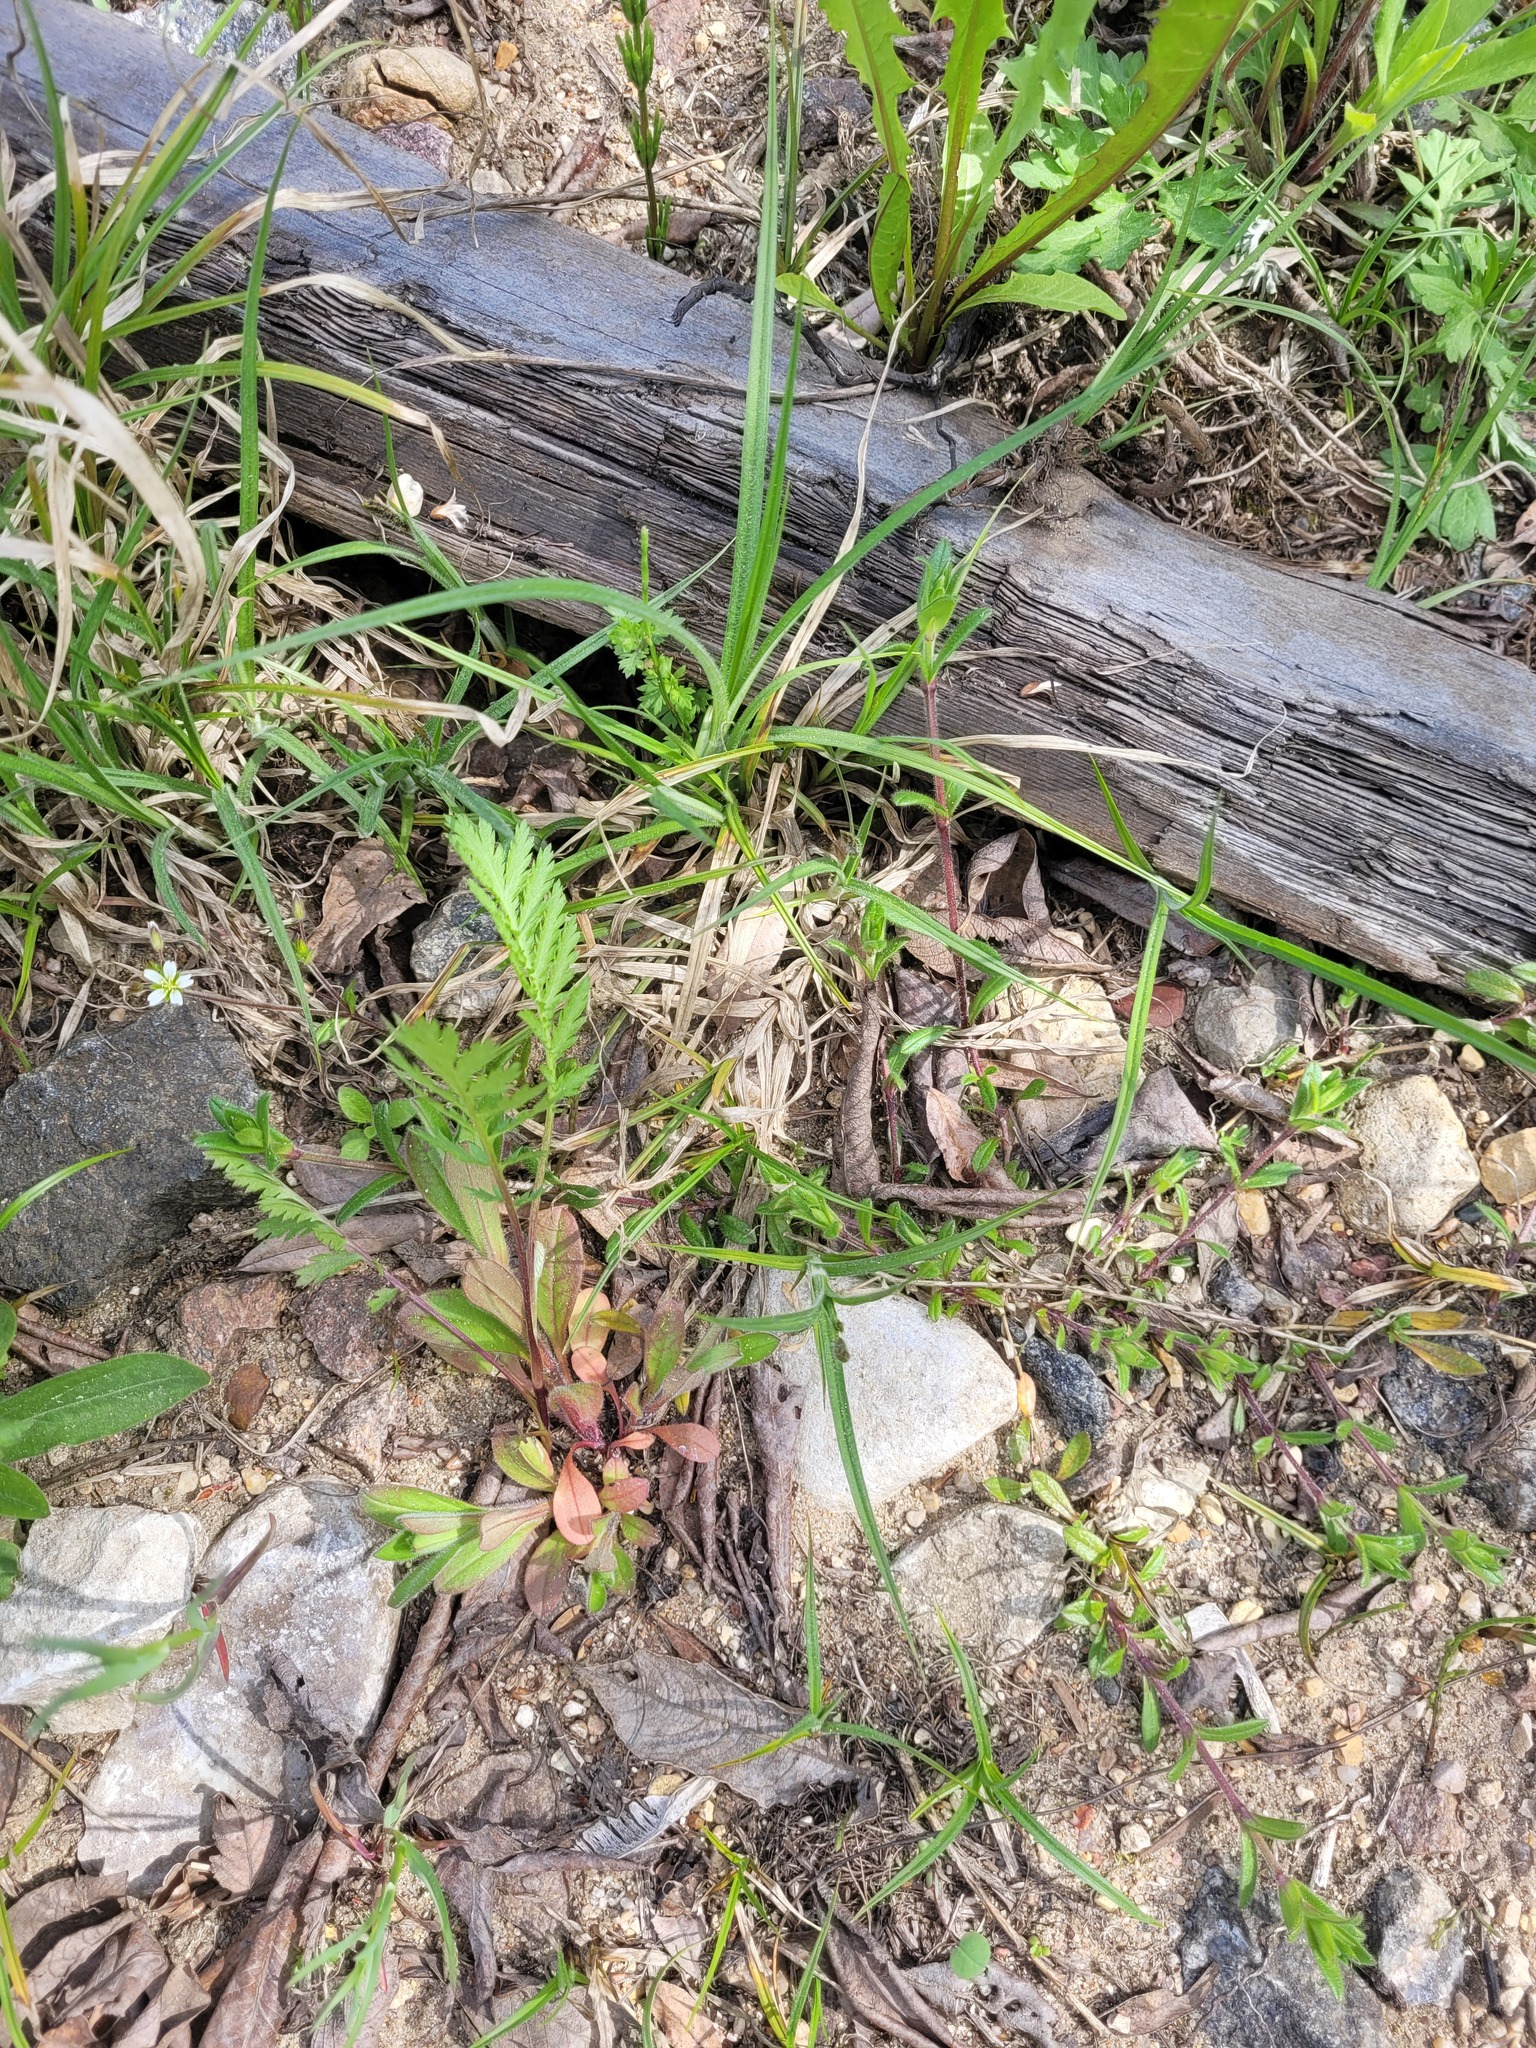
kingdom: Plantae
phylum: Tracheophyta
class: Magnoliopsida
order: Asterales
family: Asteraceae
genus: Tanacetum
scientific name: Tanacetum vulgare
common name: Common tansy
